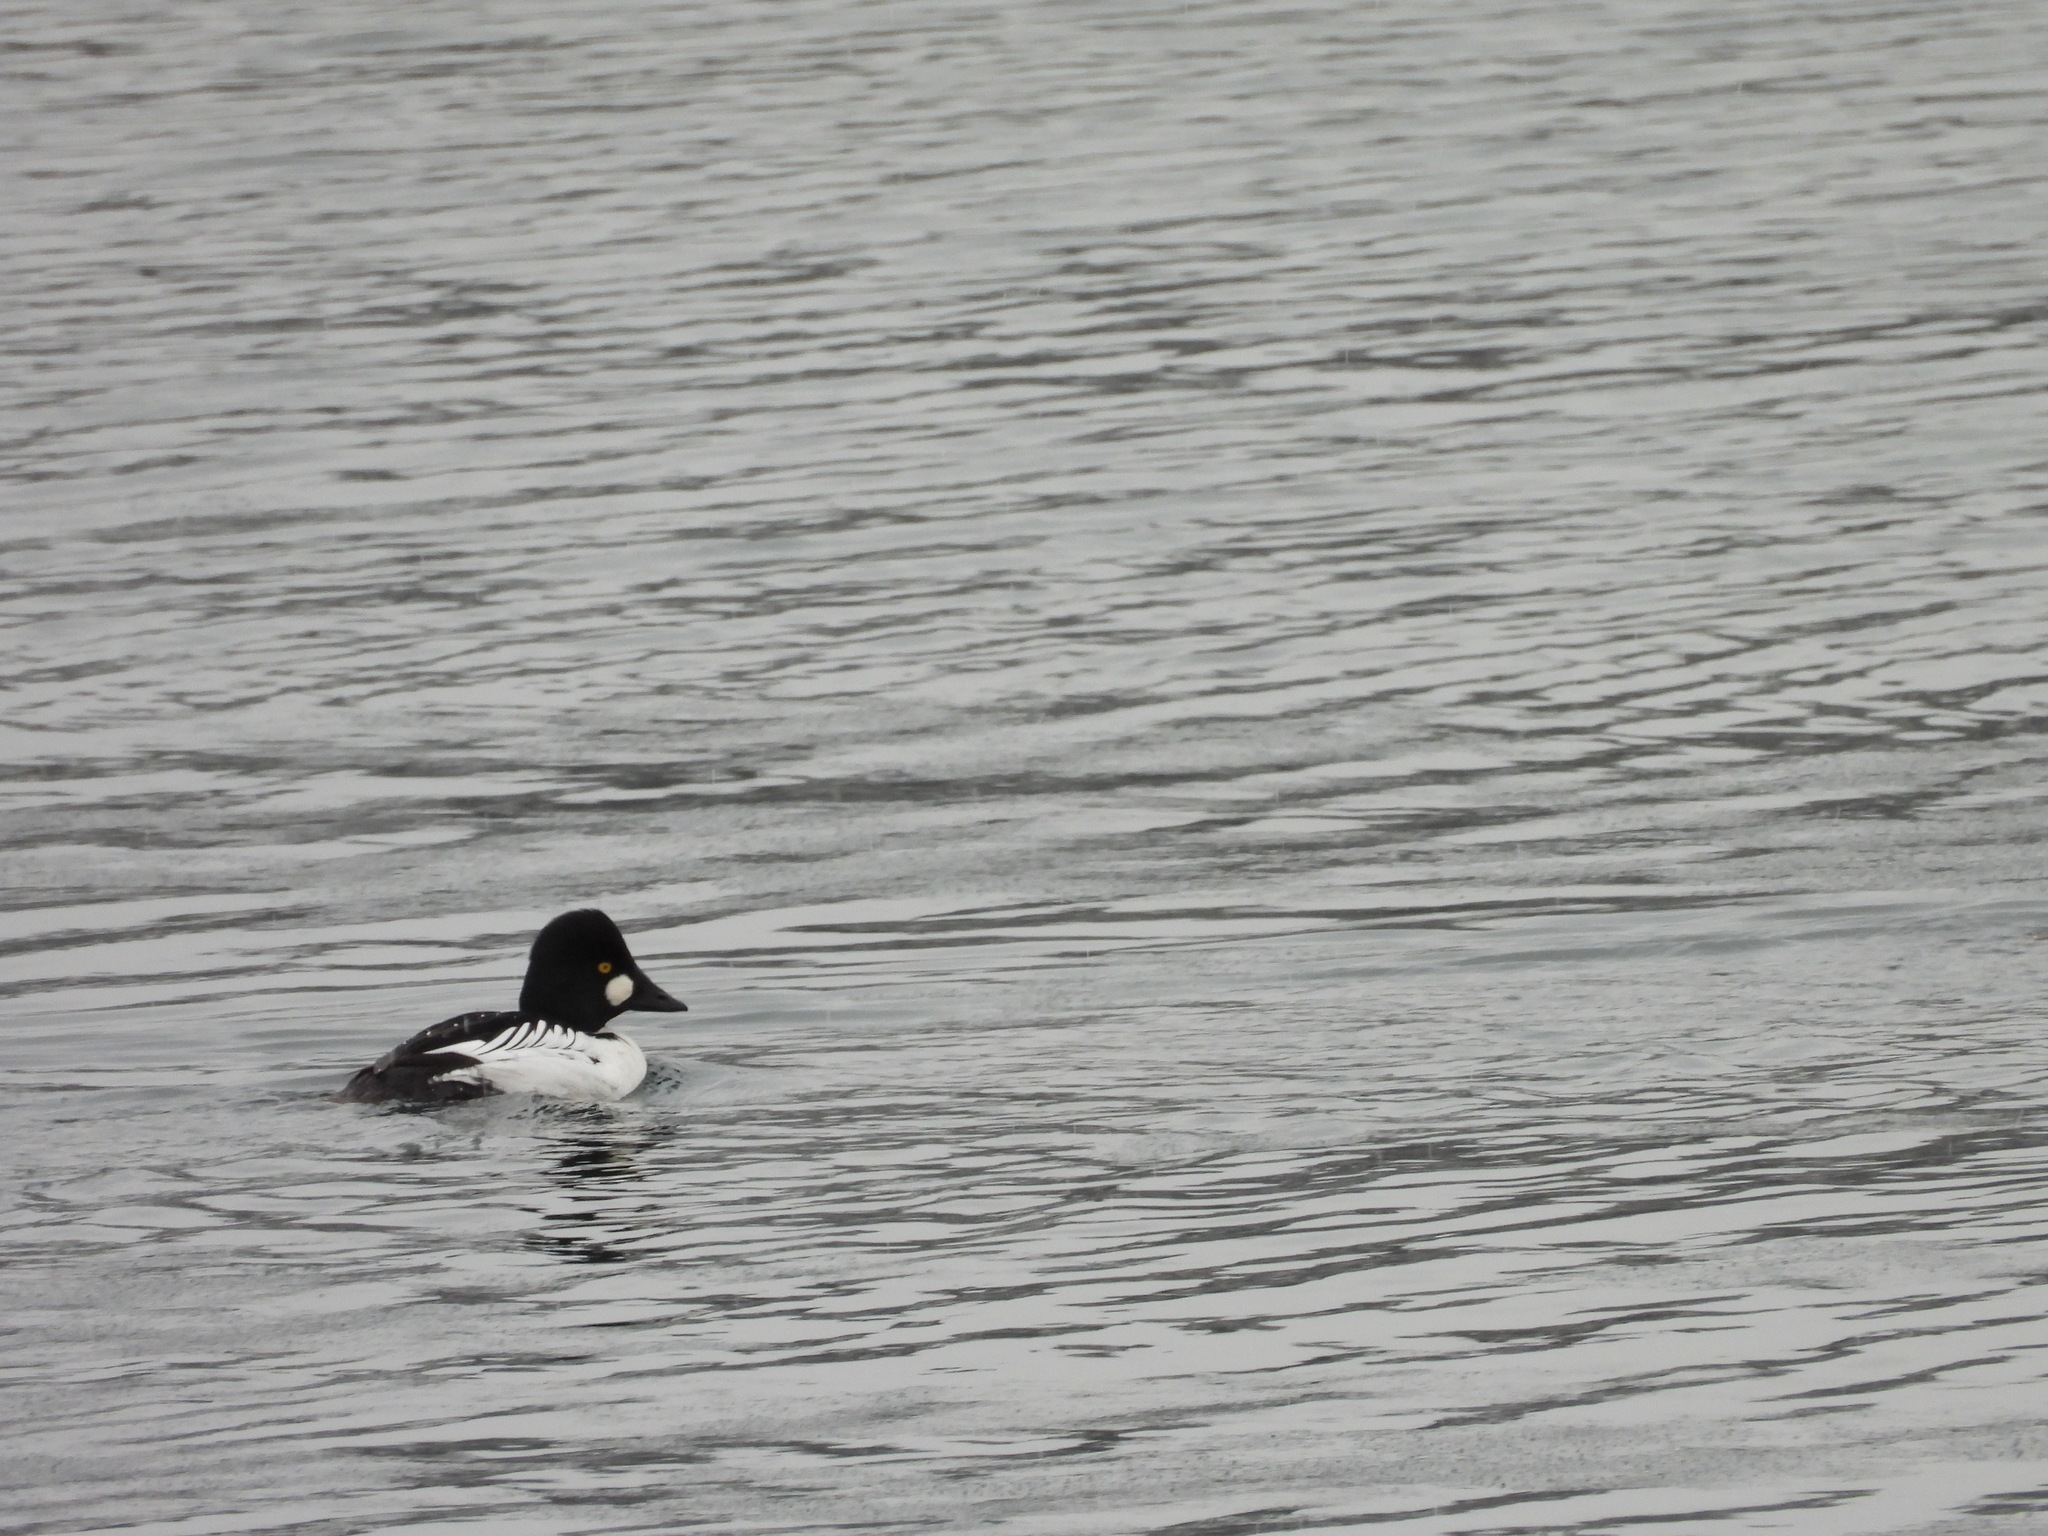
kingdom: Animalia
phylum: Chordata
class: Aves
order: Anseriformes
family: Anatidae
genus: Bucephala
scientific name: Bucephala clangula
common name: Common goldeneye
